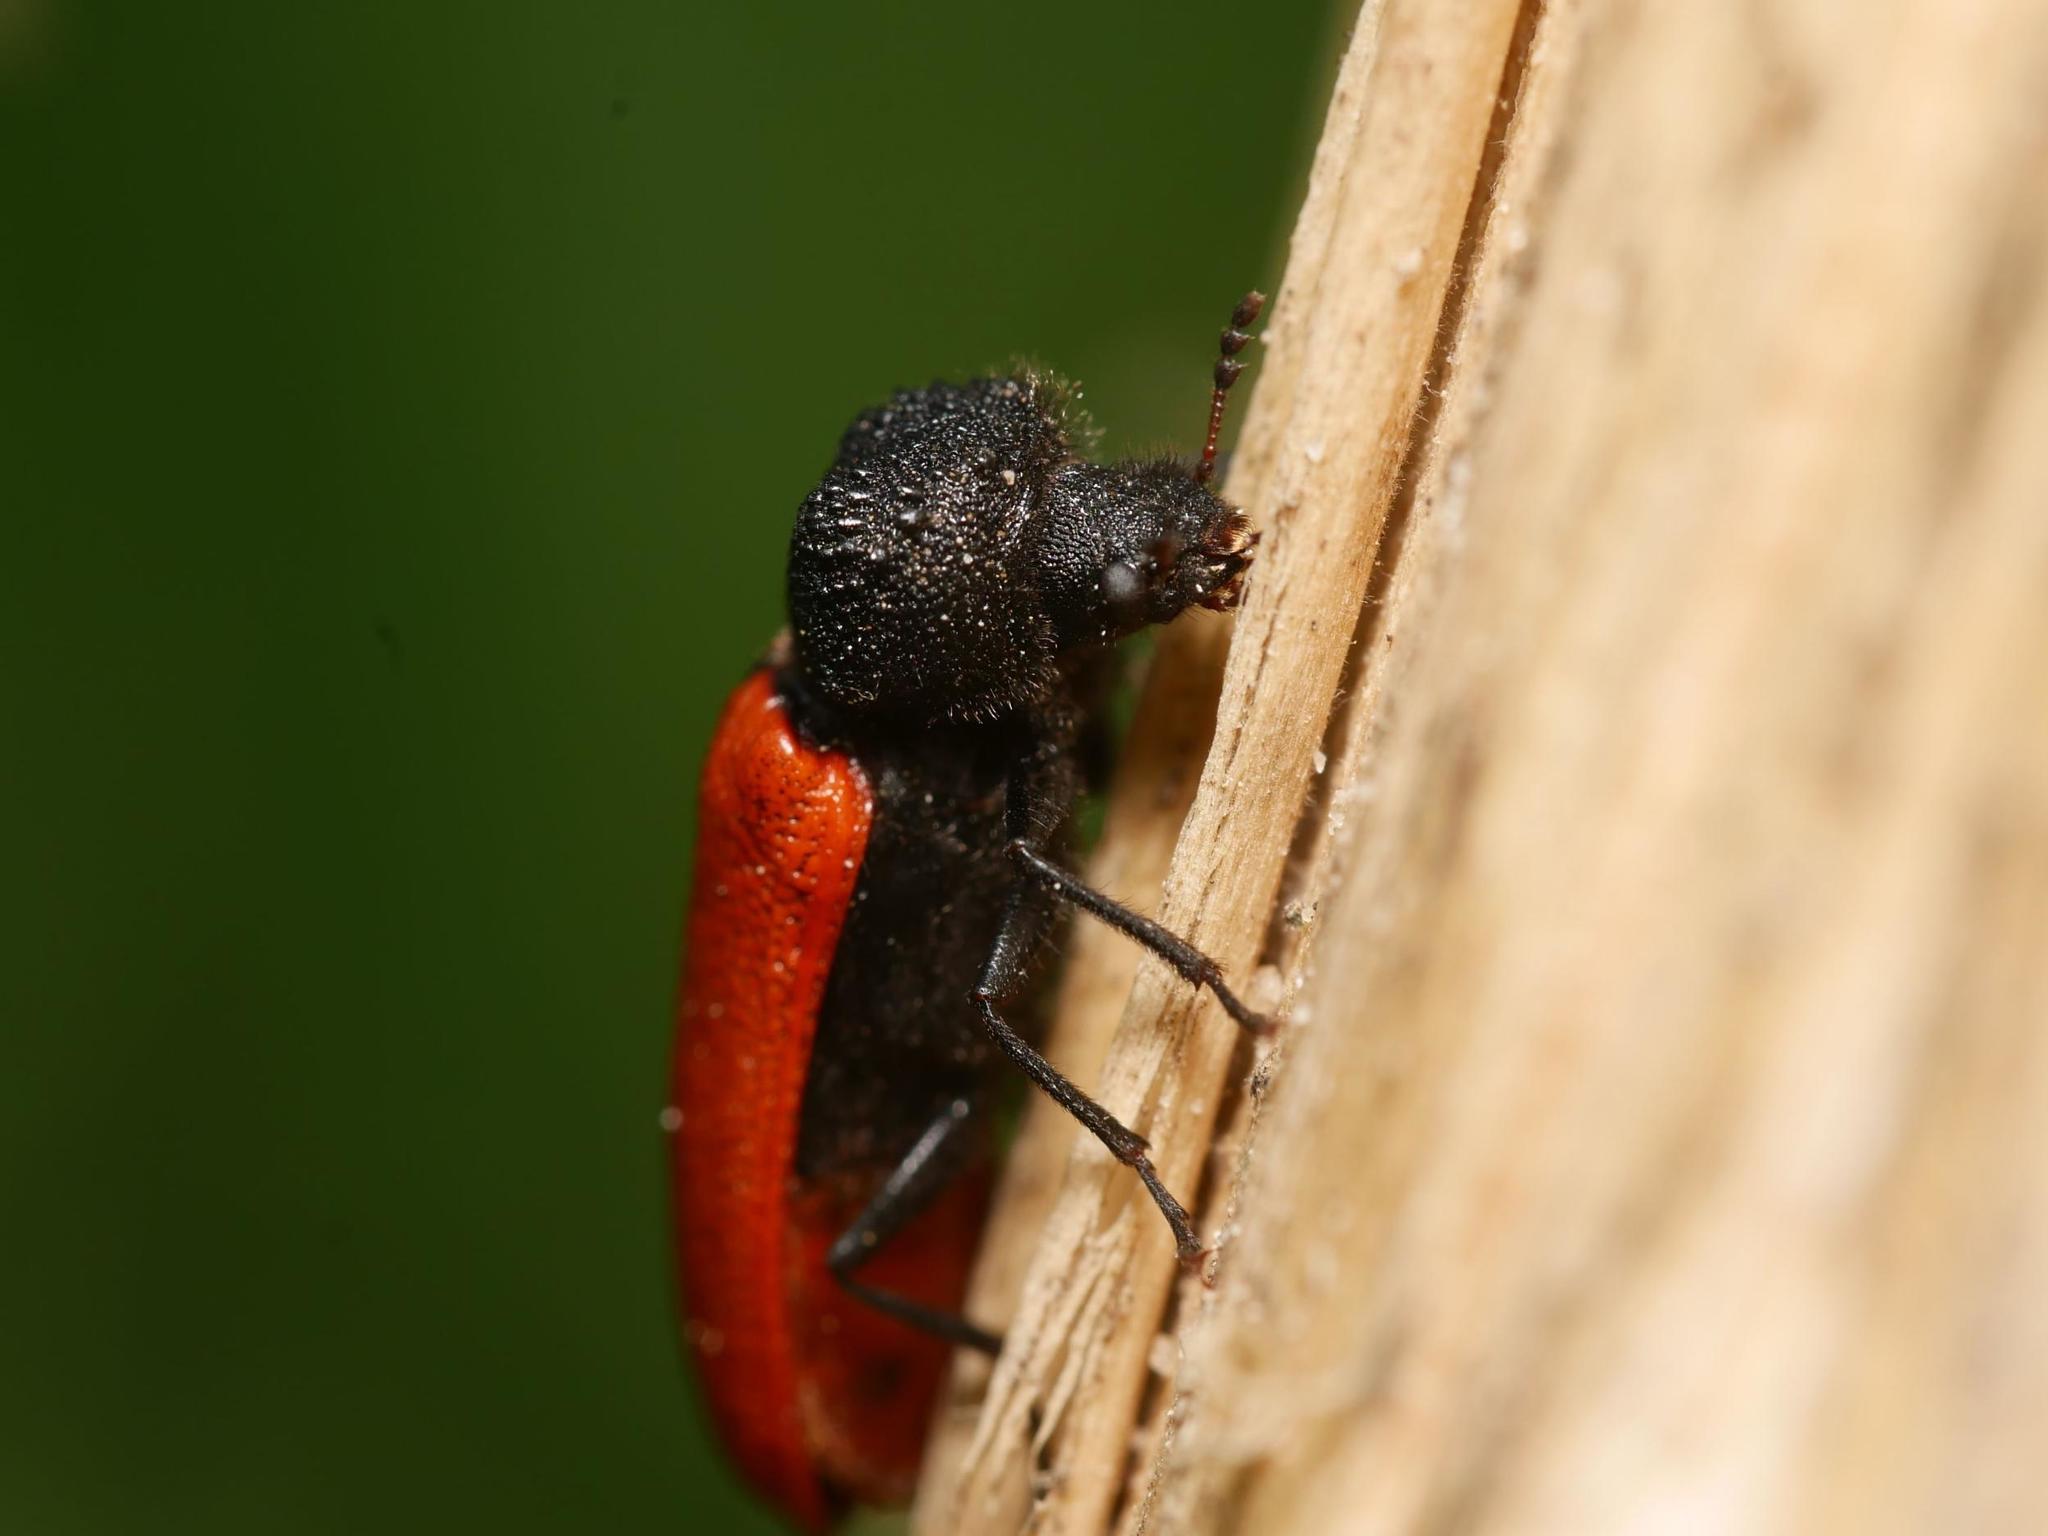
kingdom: Animalia
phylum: Arthropoda
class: Insecta
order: Coleoptera
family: Bostrichidae
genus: Bostrichus
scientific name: Bostrichus capucinus
